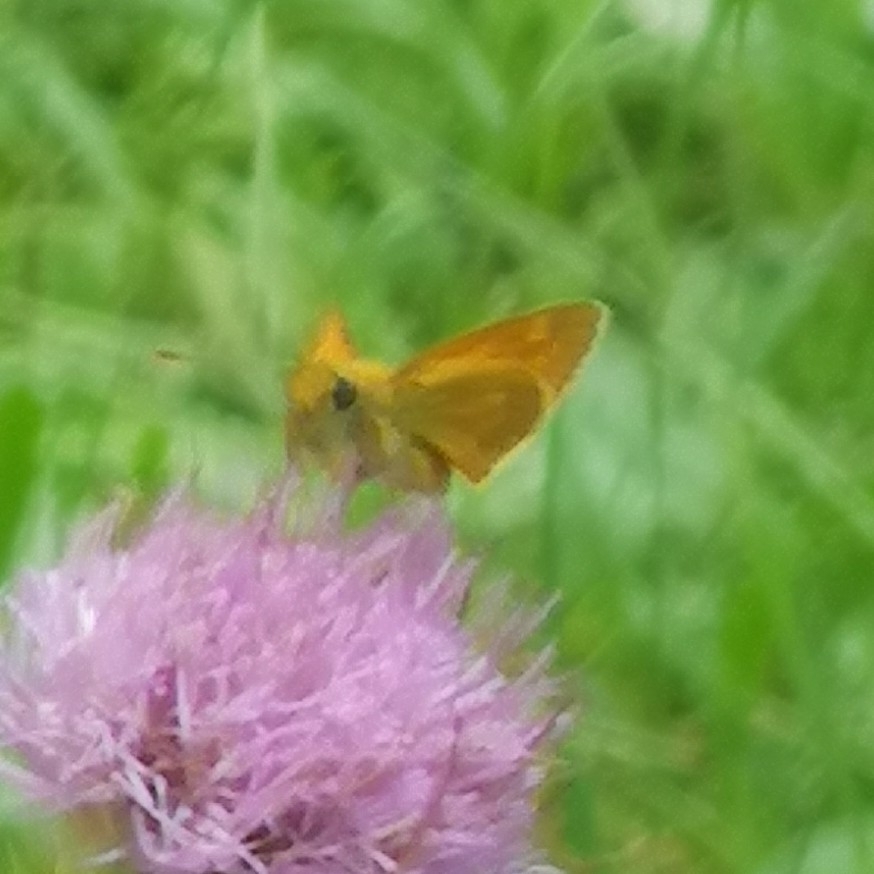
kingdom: Animalia
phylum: Arthropoda
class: Insecta
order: Lepidoptera
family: Hesperiidae
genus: Ochlodes
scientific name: Ochlodes venata
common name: Large skipper
